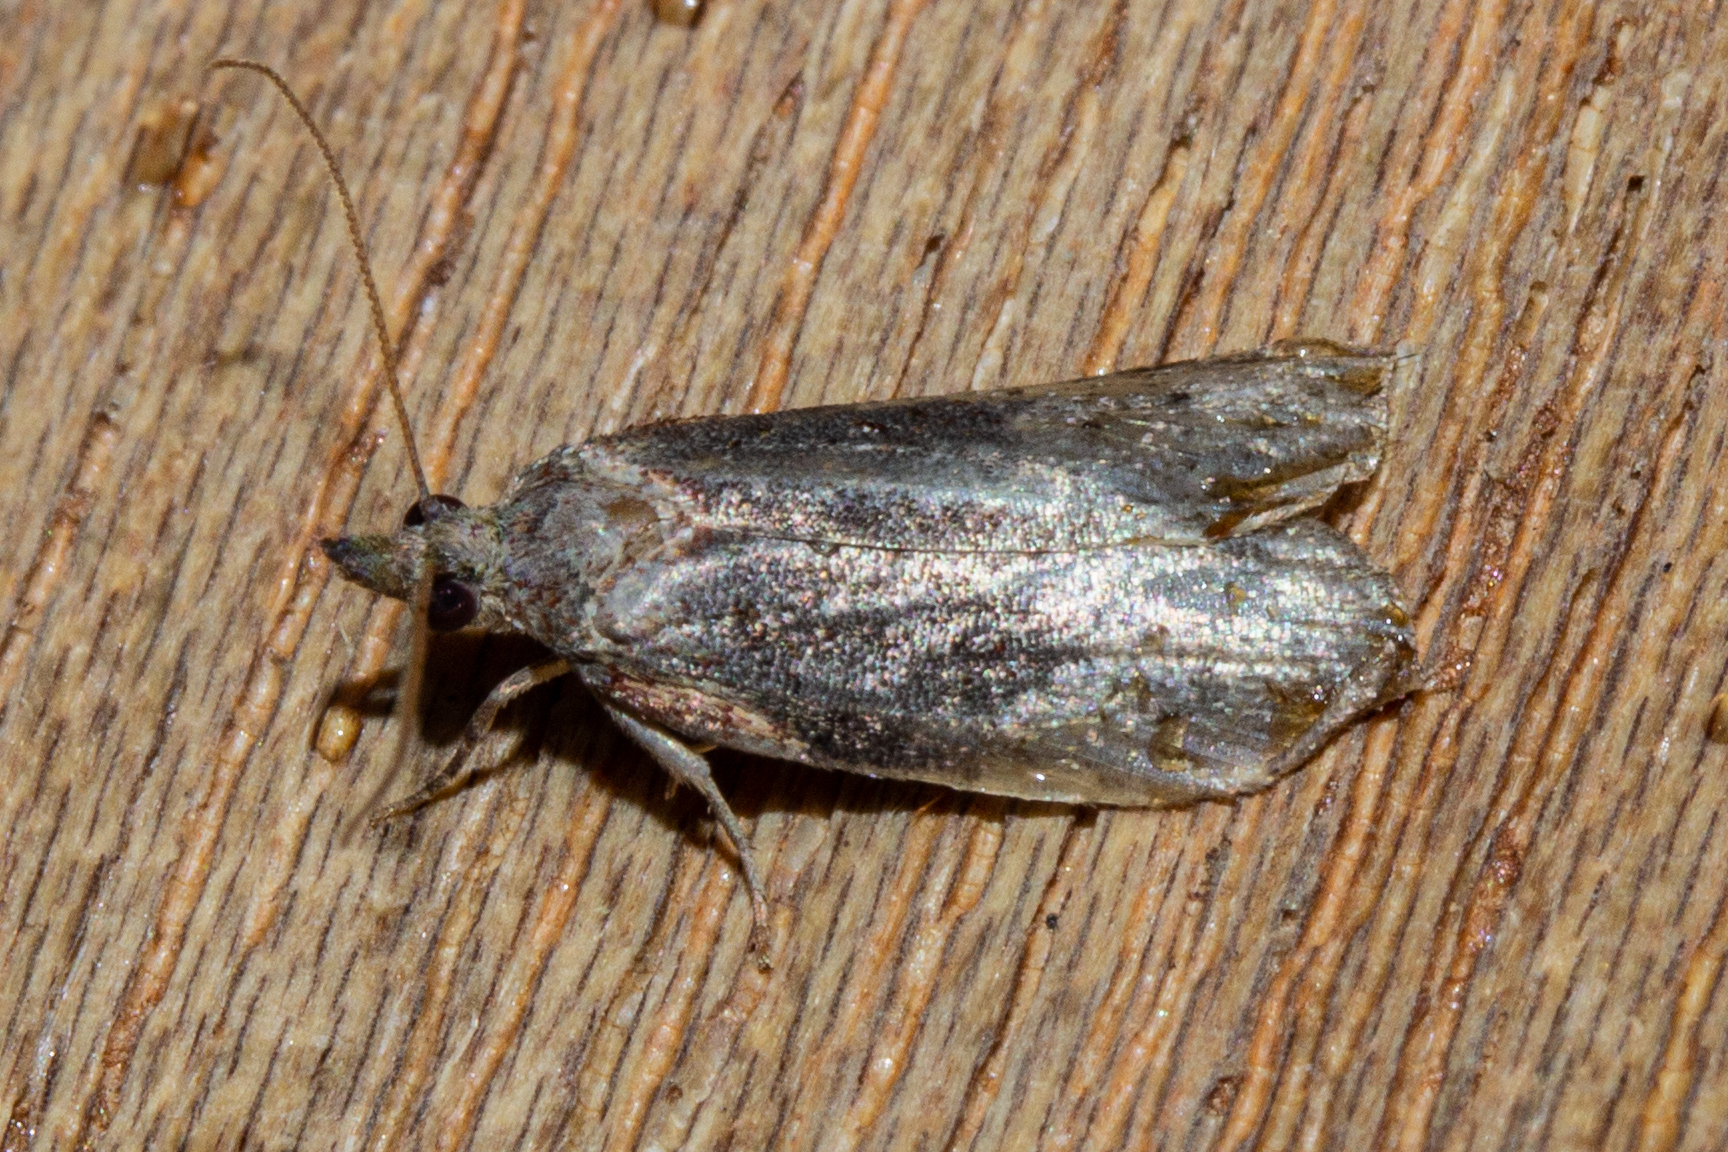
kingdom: Animalia
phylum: Arthropoda
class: Insecta
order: Lepidoptera
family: Tortricidae
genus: Prothelymna
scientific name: Prothelymna antiquana
